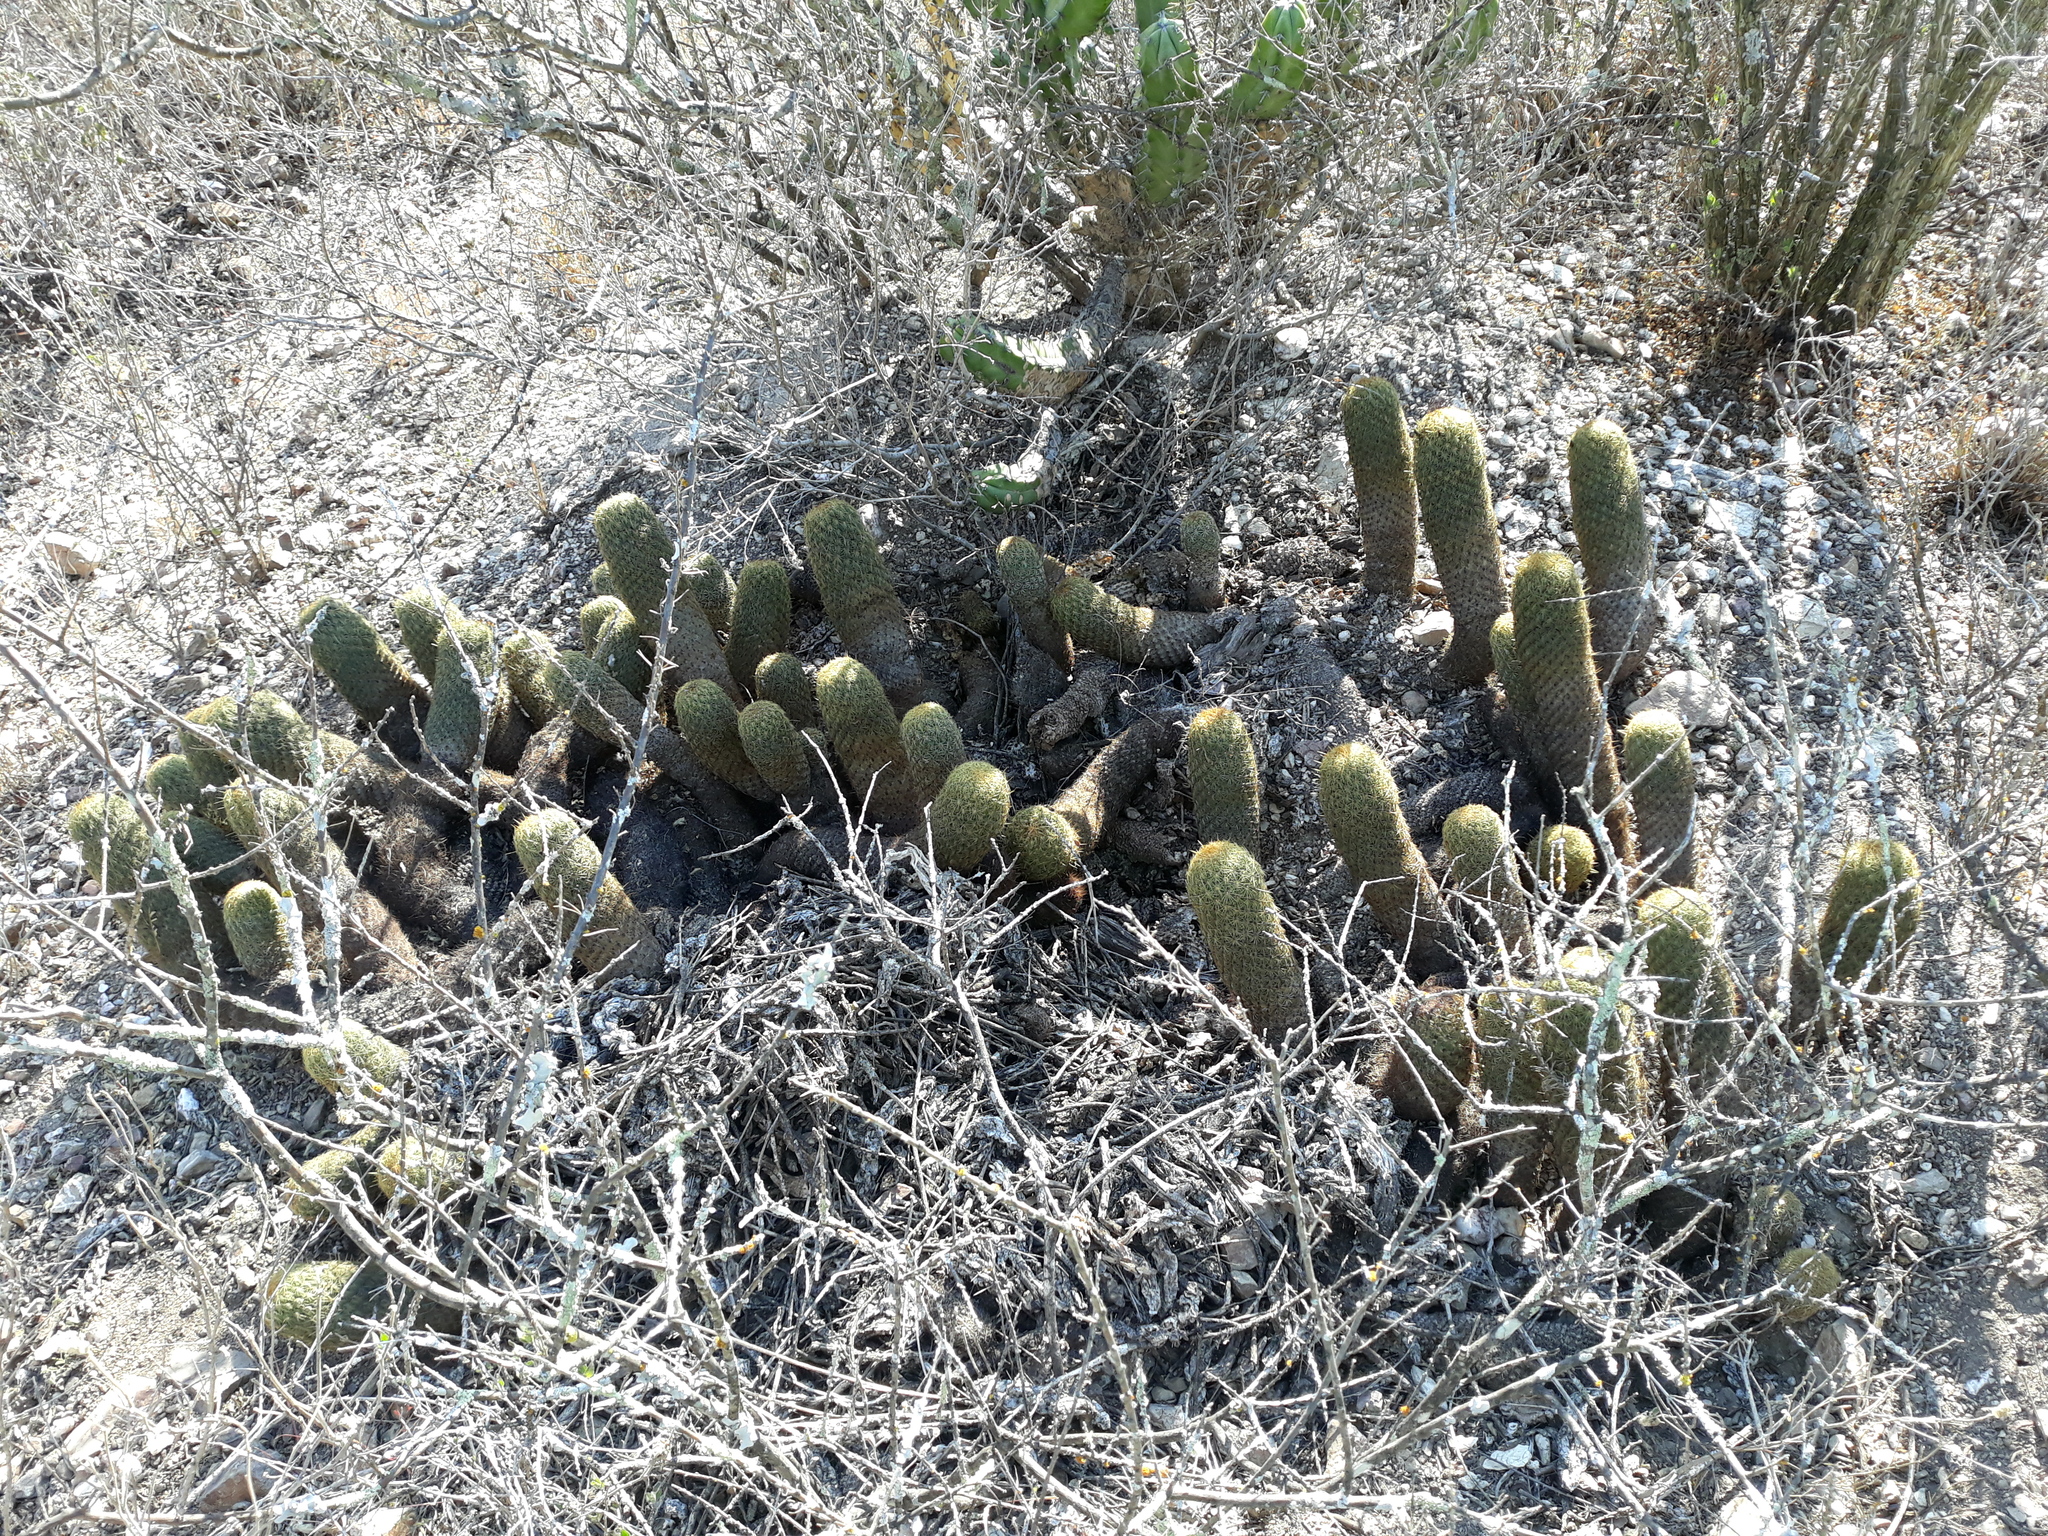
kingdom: Plantae
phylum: Tracheophyta
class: Magnoliopsida
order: Caryophyllales
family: Cactaceae
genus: Coryphantha
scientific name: Coryphantha erecta
